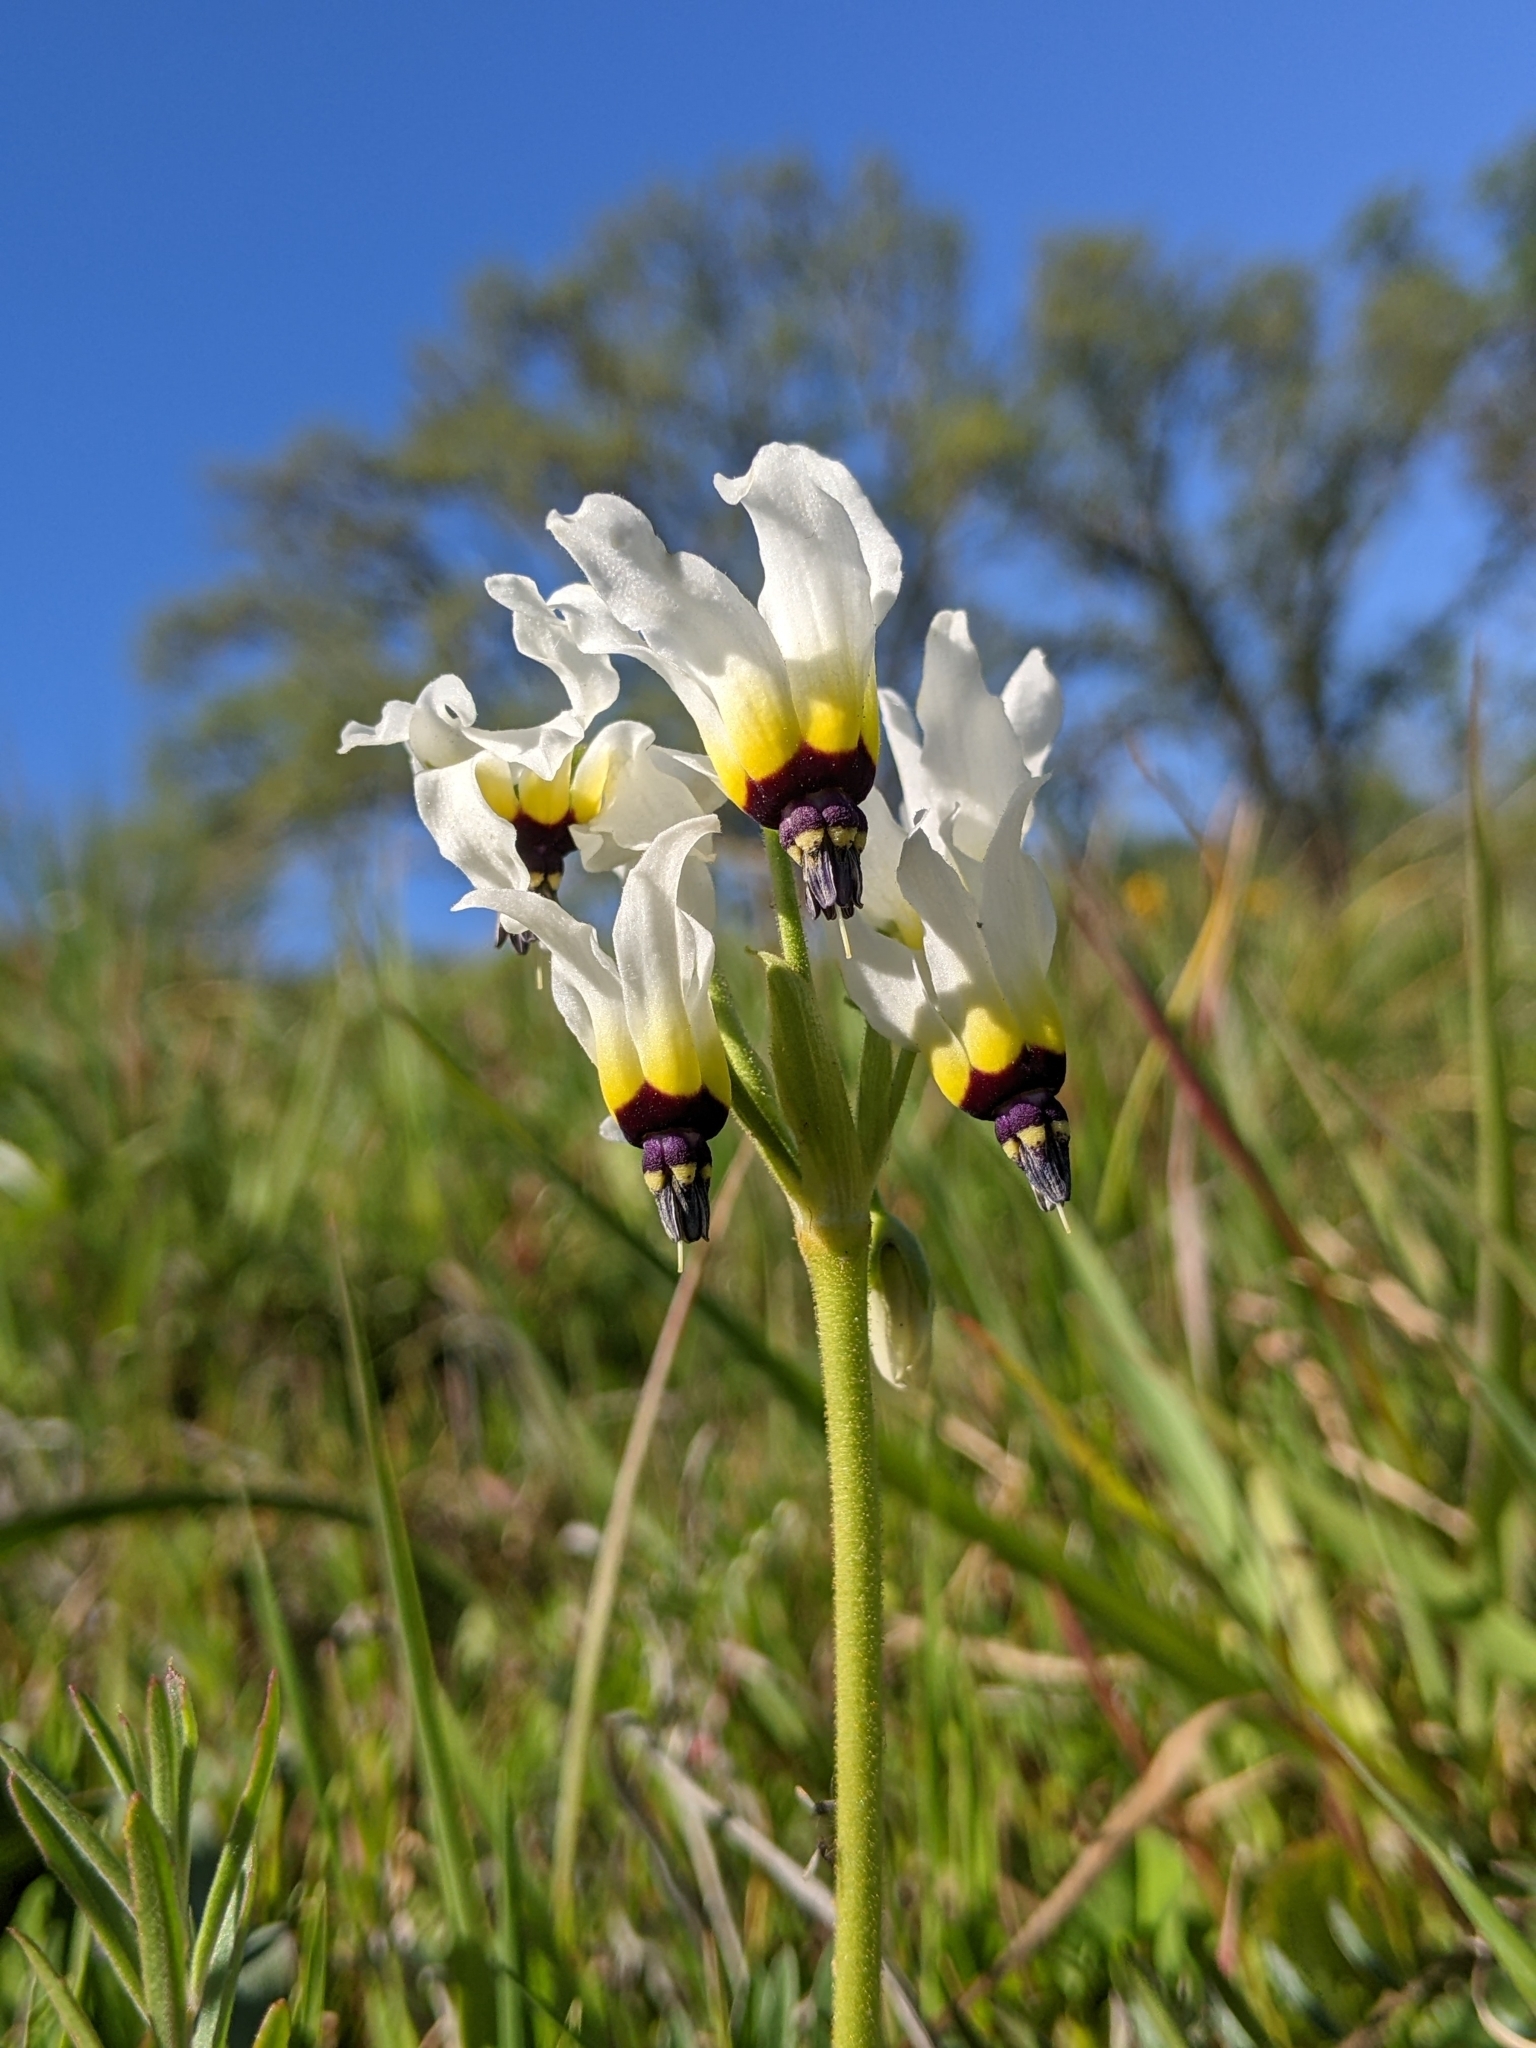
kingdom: Plantae
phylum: Tracheophyta
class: Magnoliopsida
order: Ericales
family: Primulaceae
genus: Dodecatheon
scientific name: Dodecatheon clevelandii
